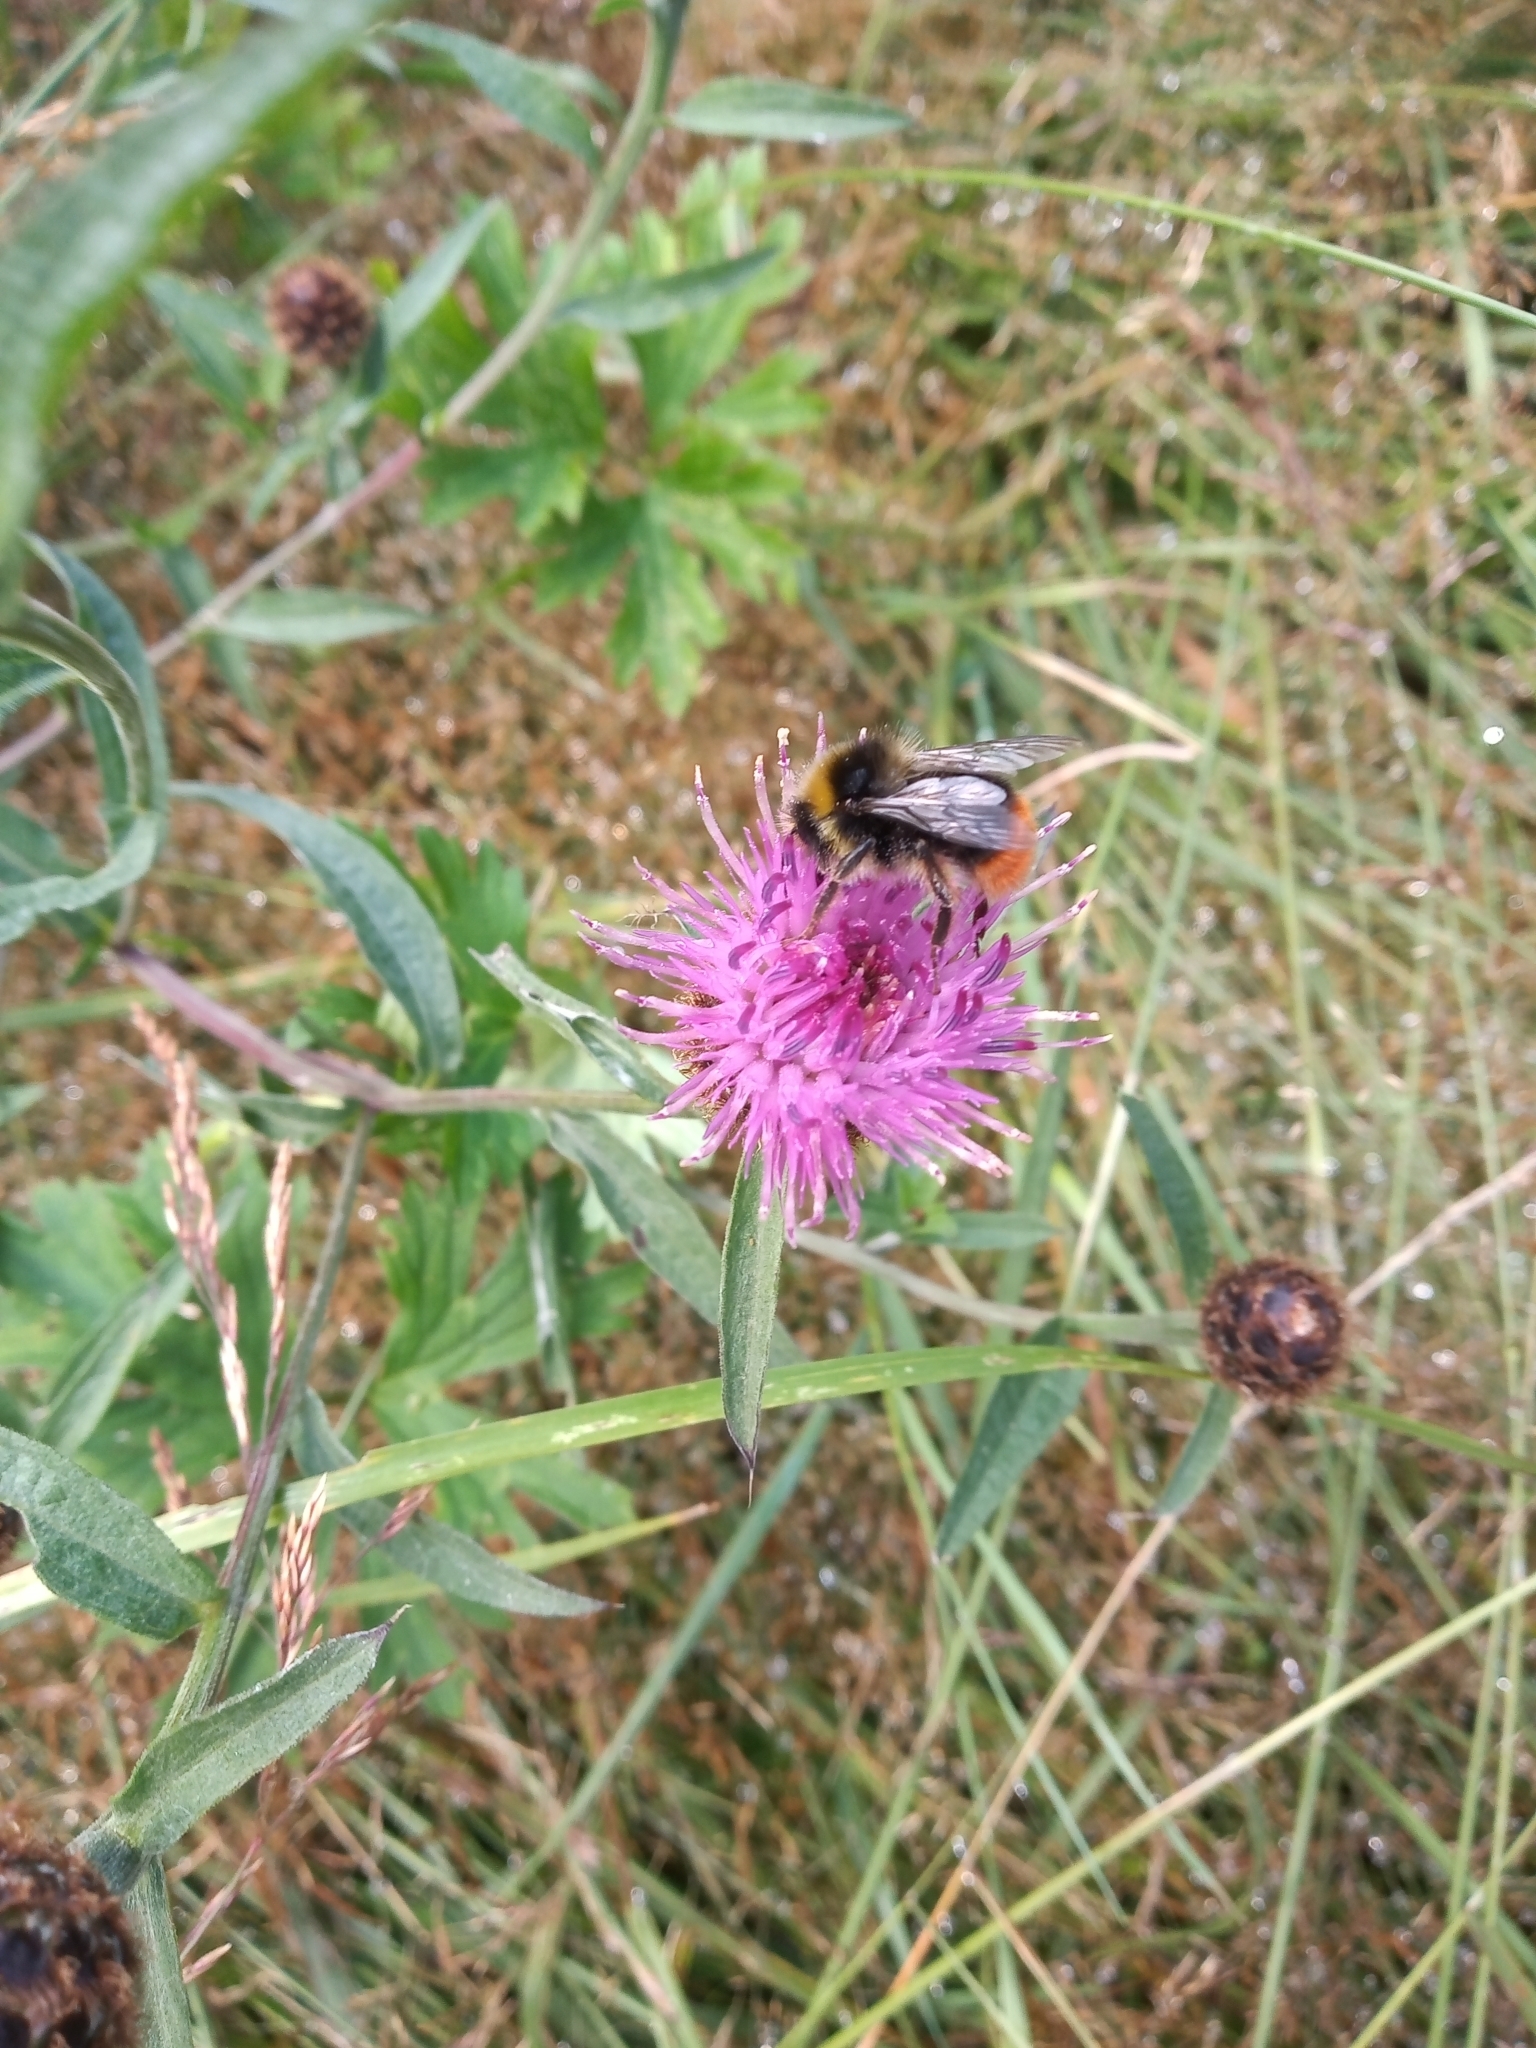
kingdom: Animalia
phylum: Arthropoda
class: Insecta
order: Hymenoptera
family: Apidae
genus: Bombus
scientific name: Bombus lapidarius
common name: Large red-tailed humble-bee
